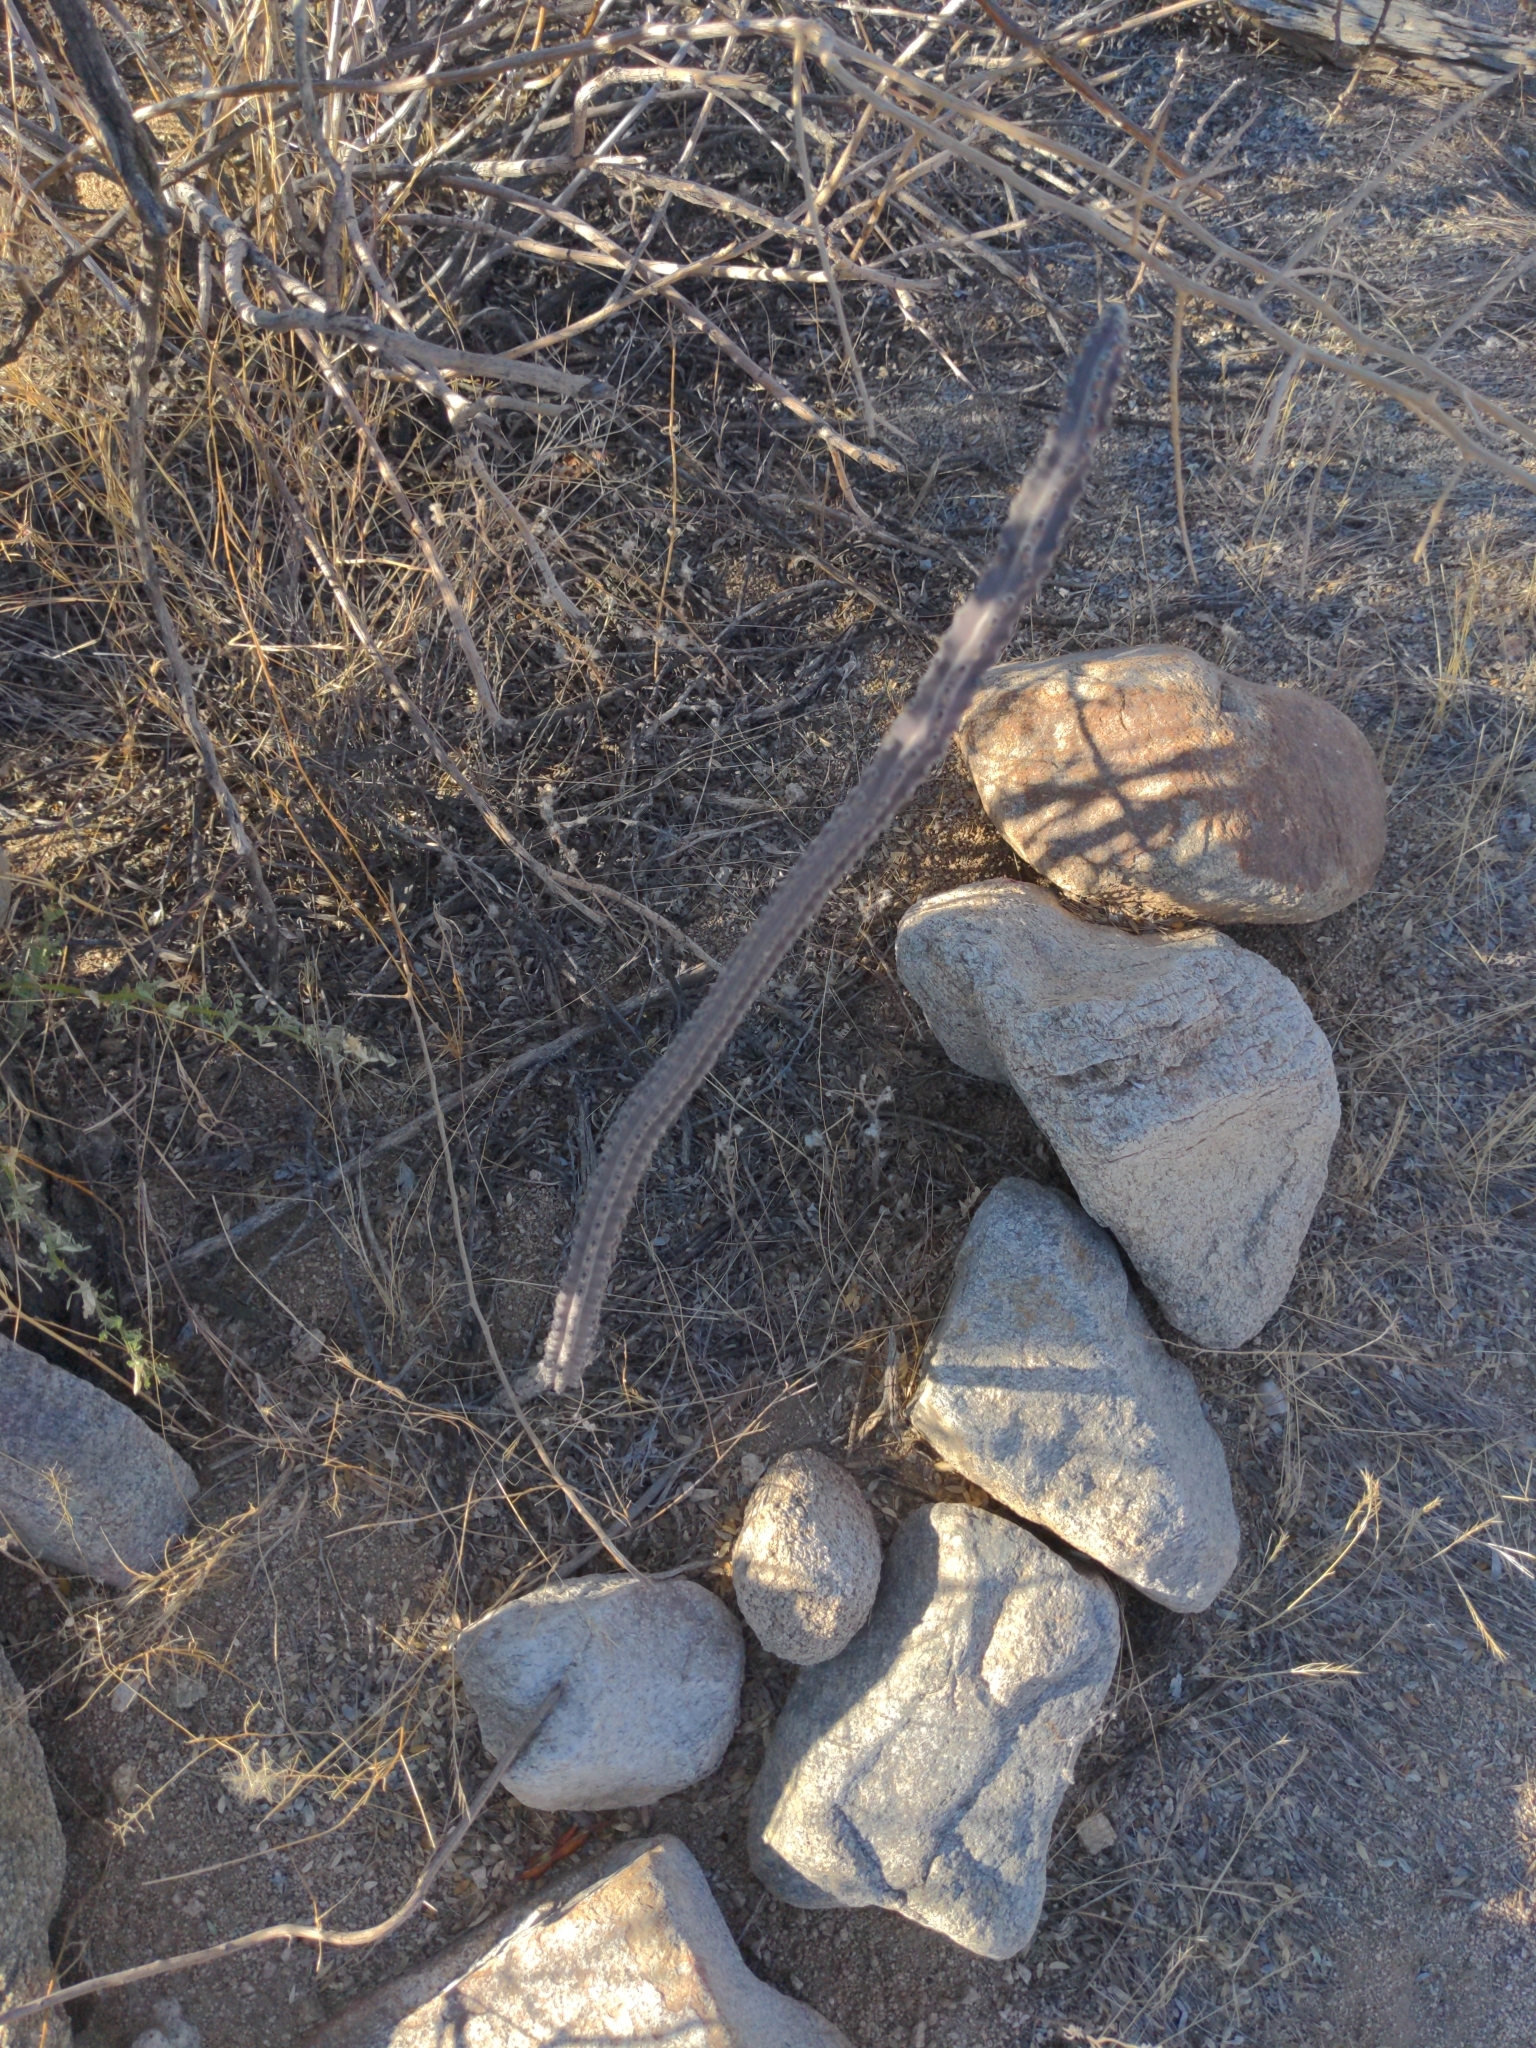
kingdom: Plantae
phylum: Tracheophyta
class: Magnoliopsida
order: Caryophyllales
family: Cactaceae
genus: Peniocereus
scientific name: Peniocereus greggii
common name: Desert night-blooming cereus
